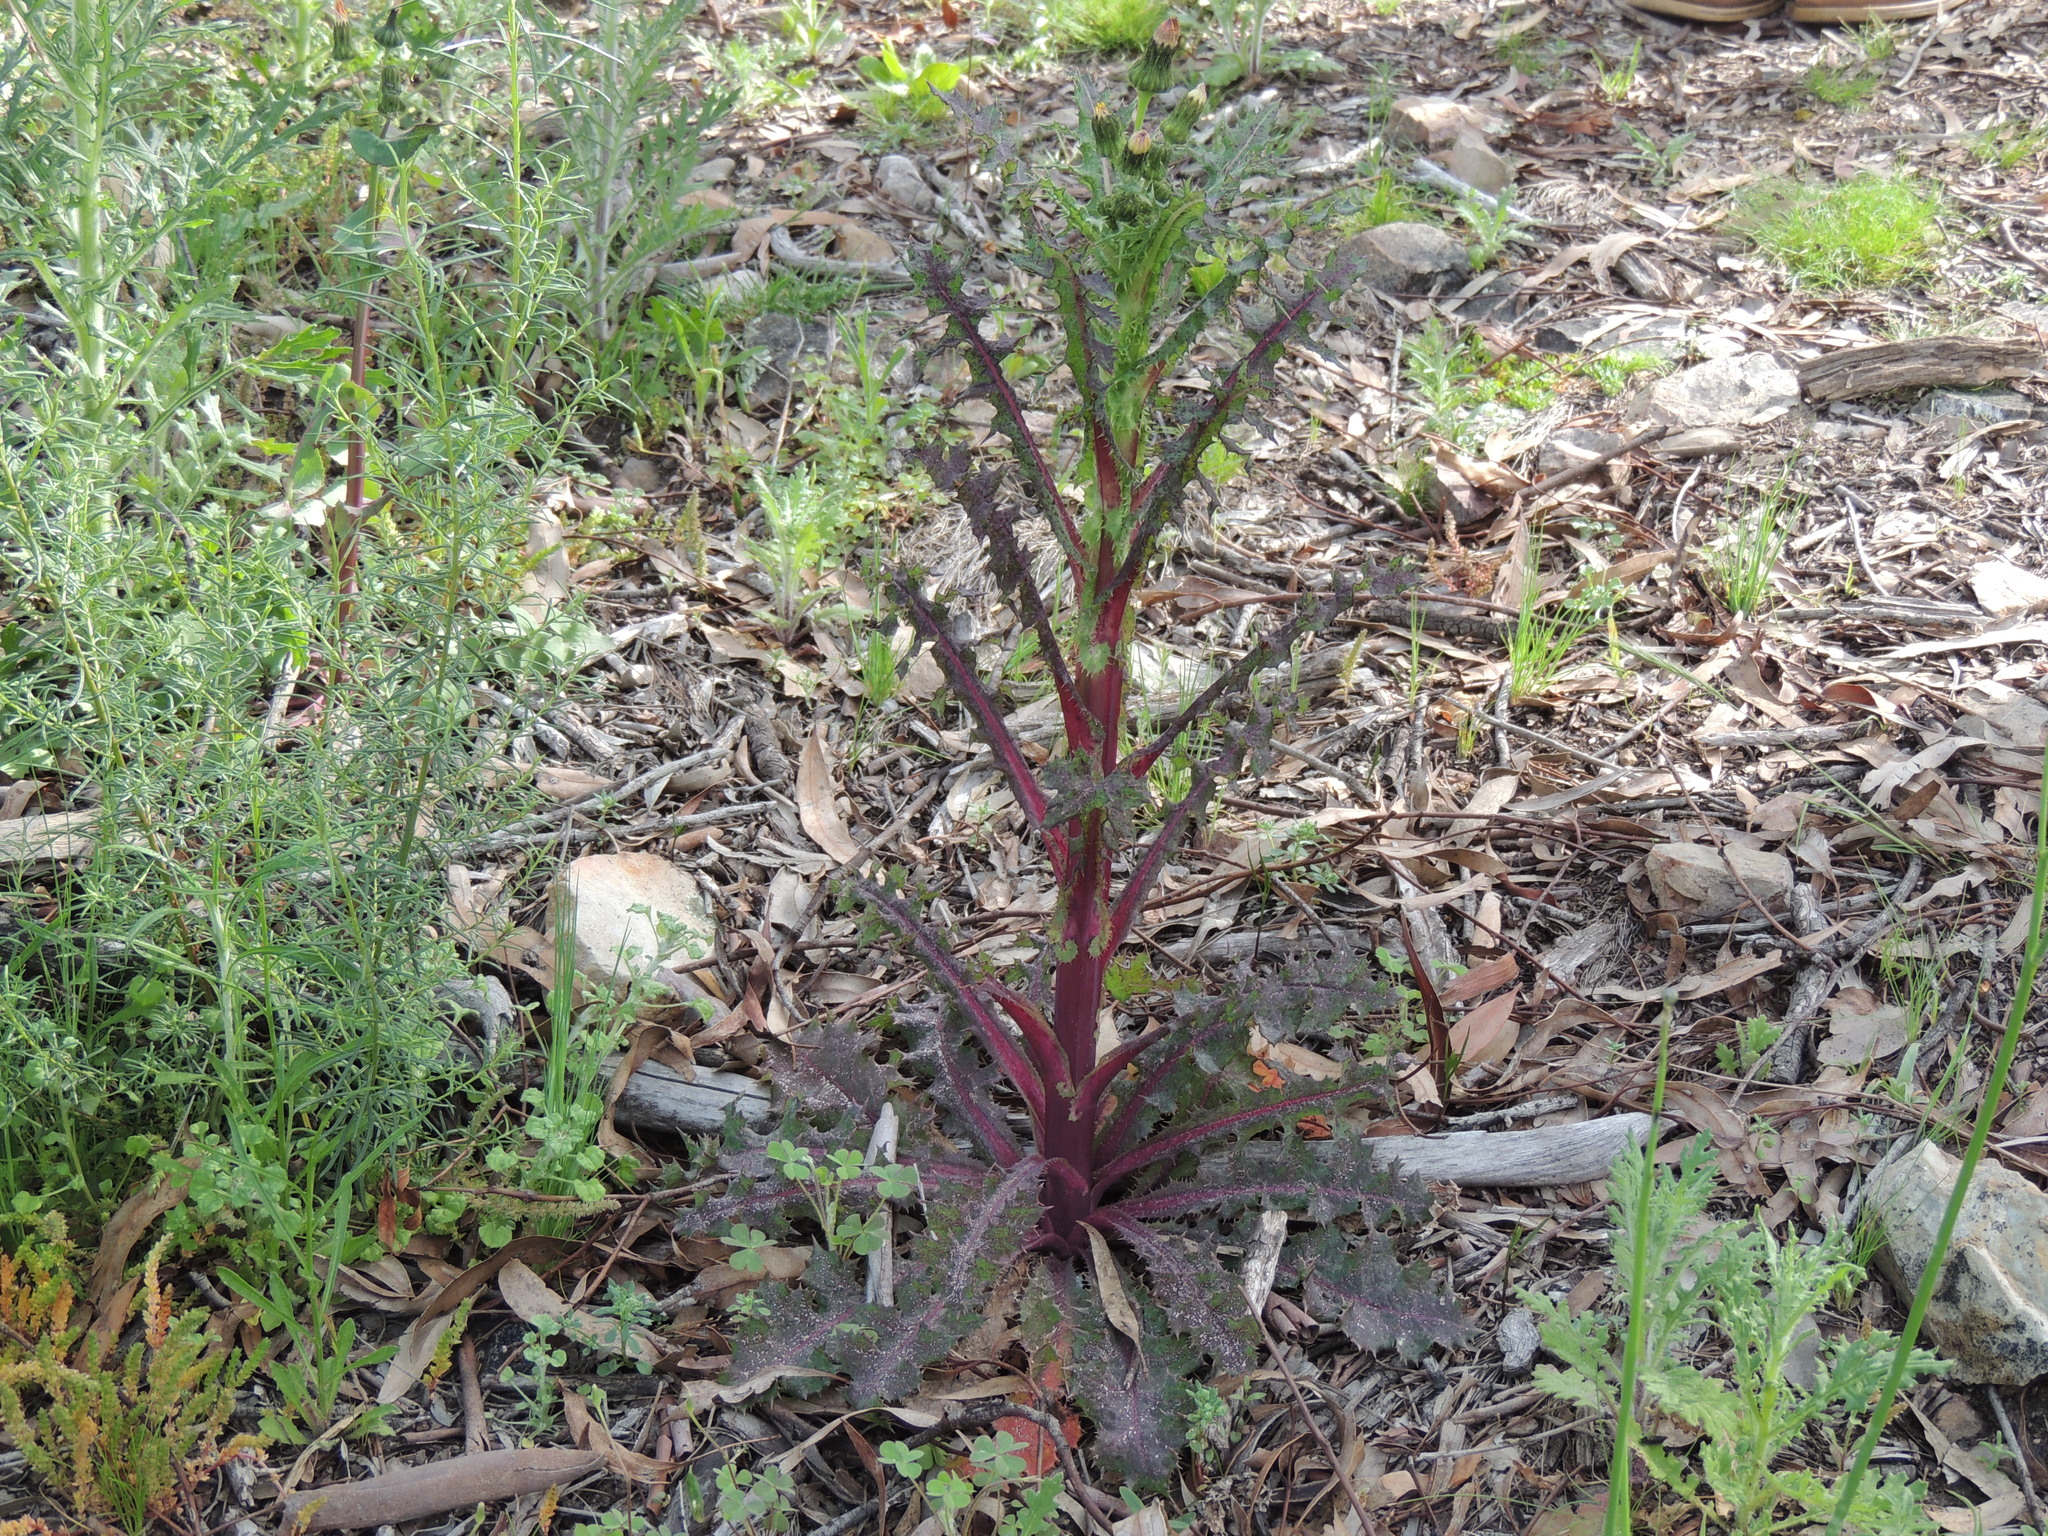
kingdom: Plantae
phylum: Tracheophyta
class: Magnoliopsida
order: Asterales
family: Asteraceae
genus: Sonchus
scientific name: Sonchus asper
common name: Prickly sow-thistle
